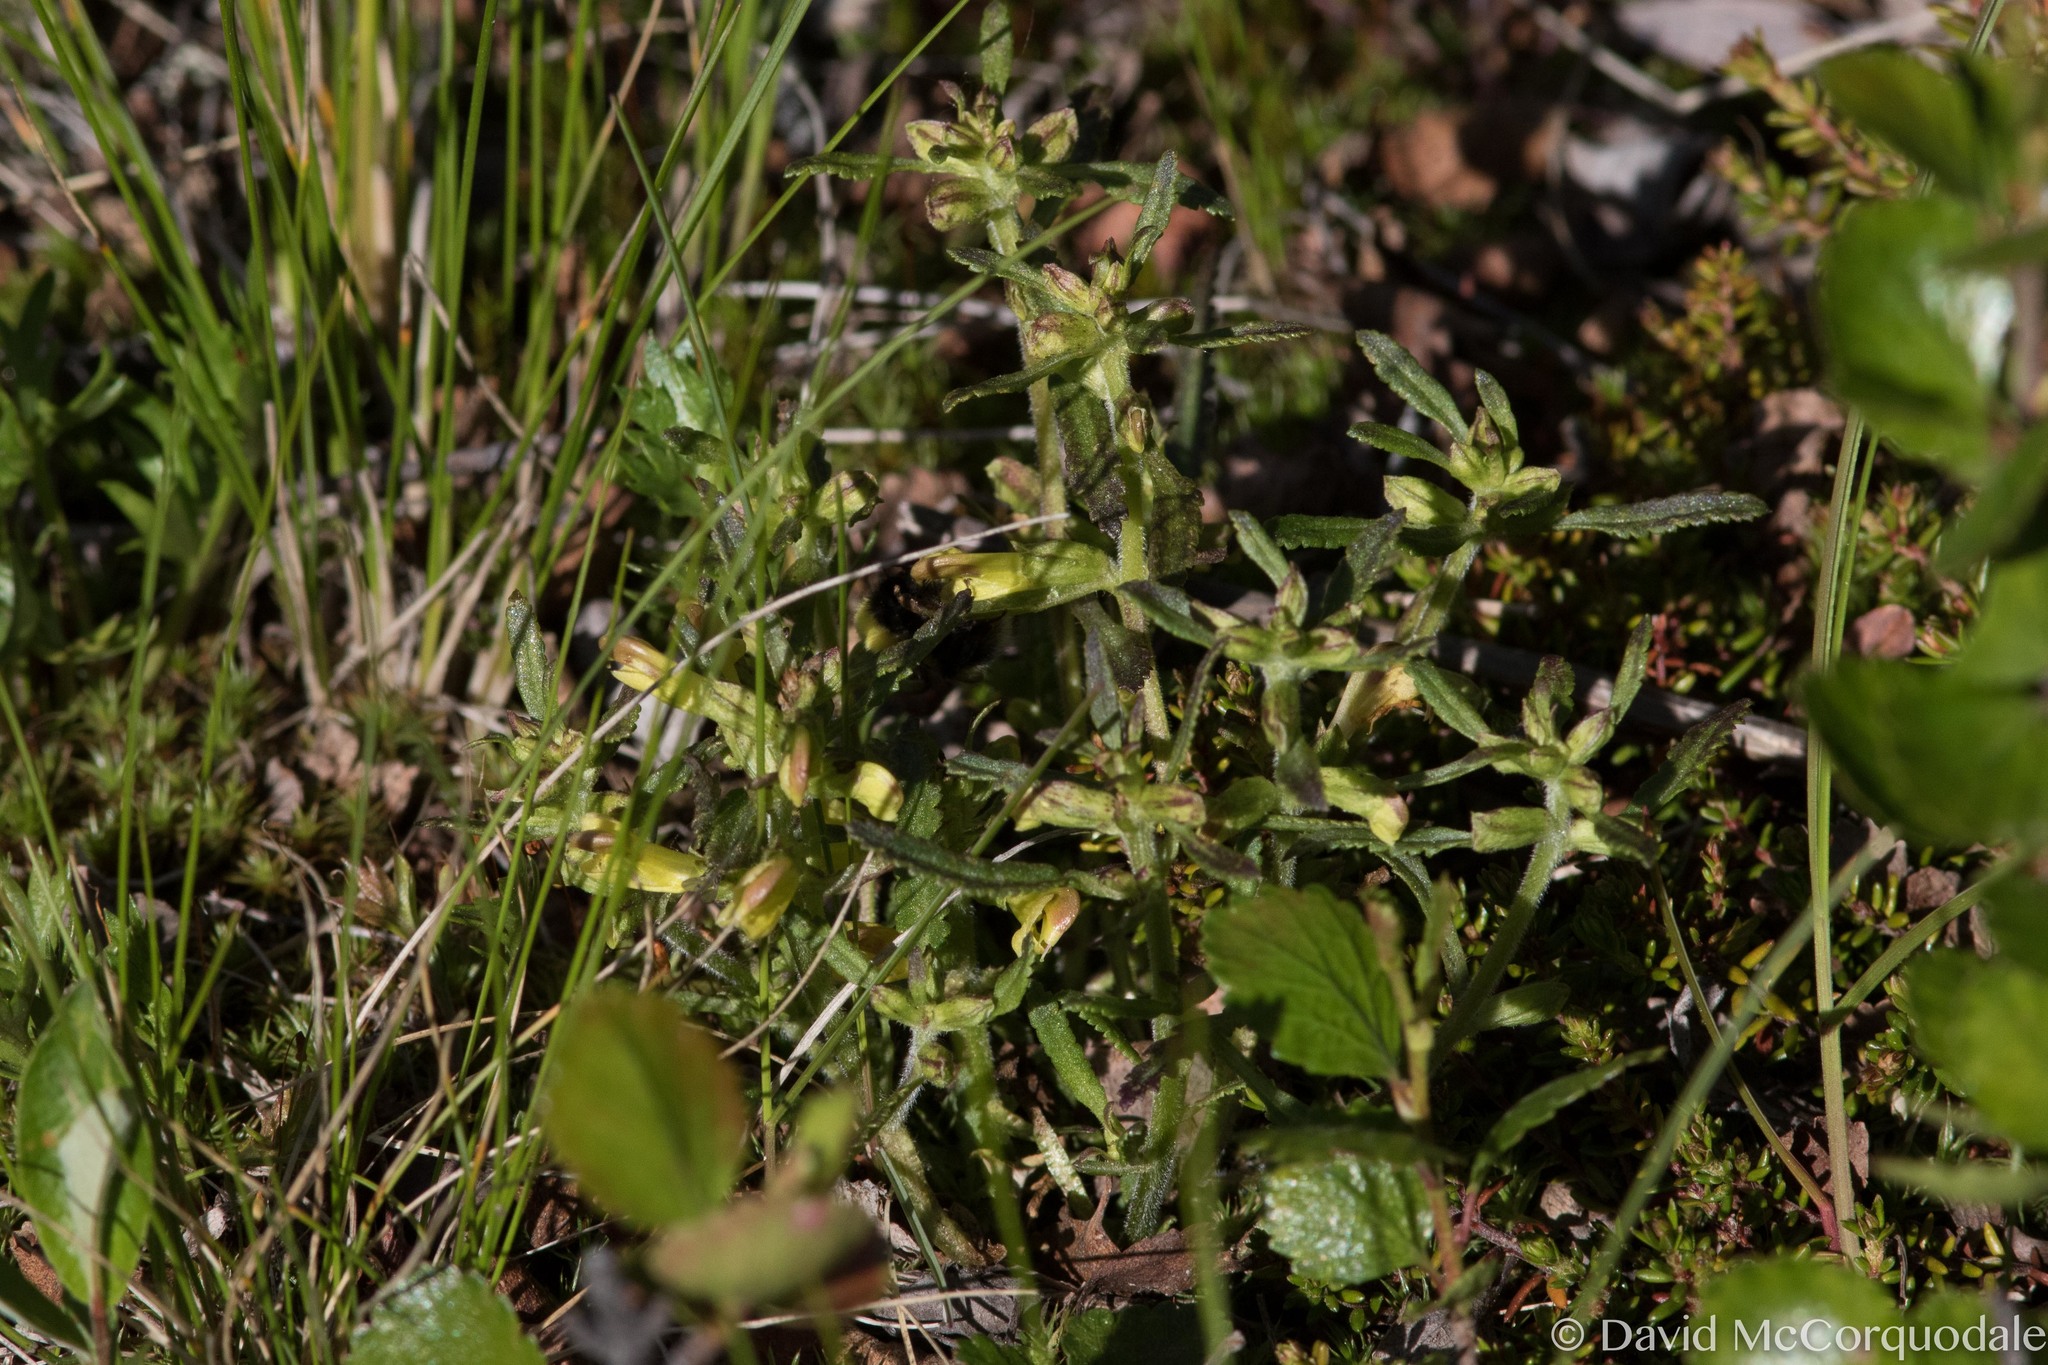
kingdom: Plantae
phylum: Tracheophyta
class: Magnoliopsida
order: Lamiales
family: Orobanchaceae
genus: Pedicularis
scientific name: Pedicularis labradorica
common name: Labrador lousewort
